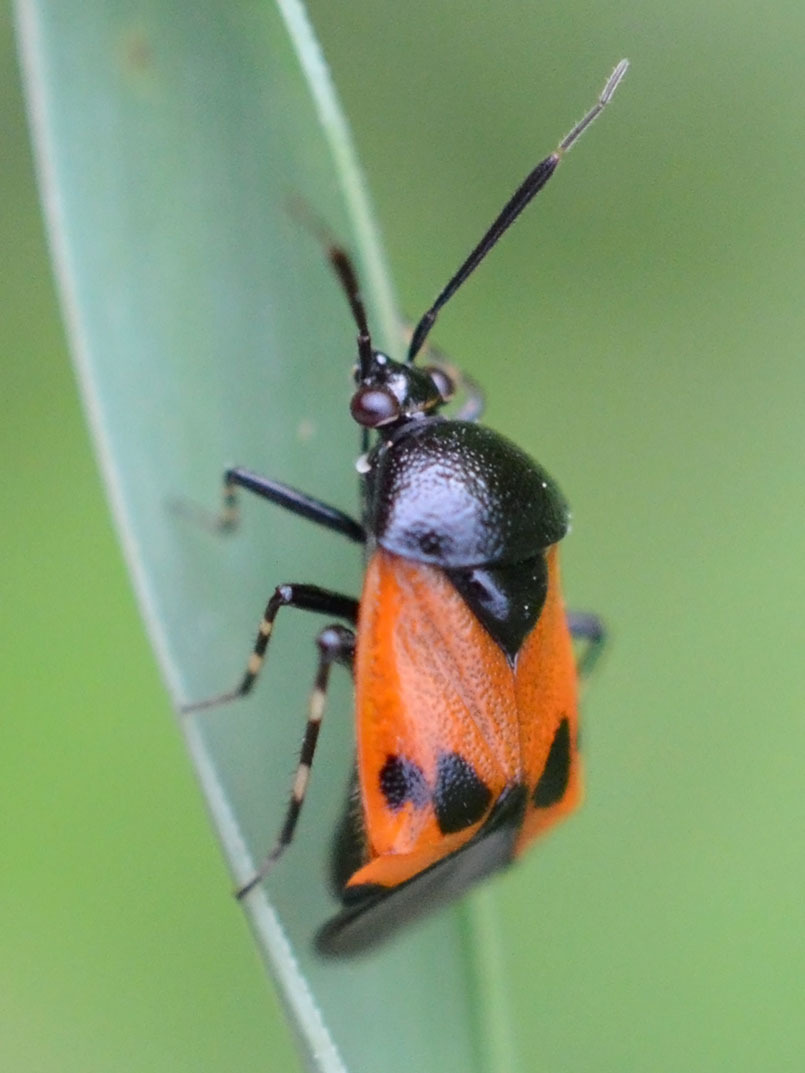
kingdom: Animalia
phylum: Arthropoda
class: Insecta
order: Hemiptera
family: Miridae
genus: Deraeocoris
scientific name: Deraeocoris rutilus
